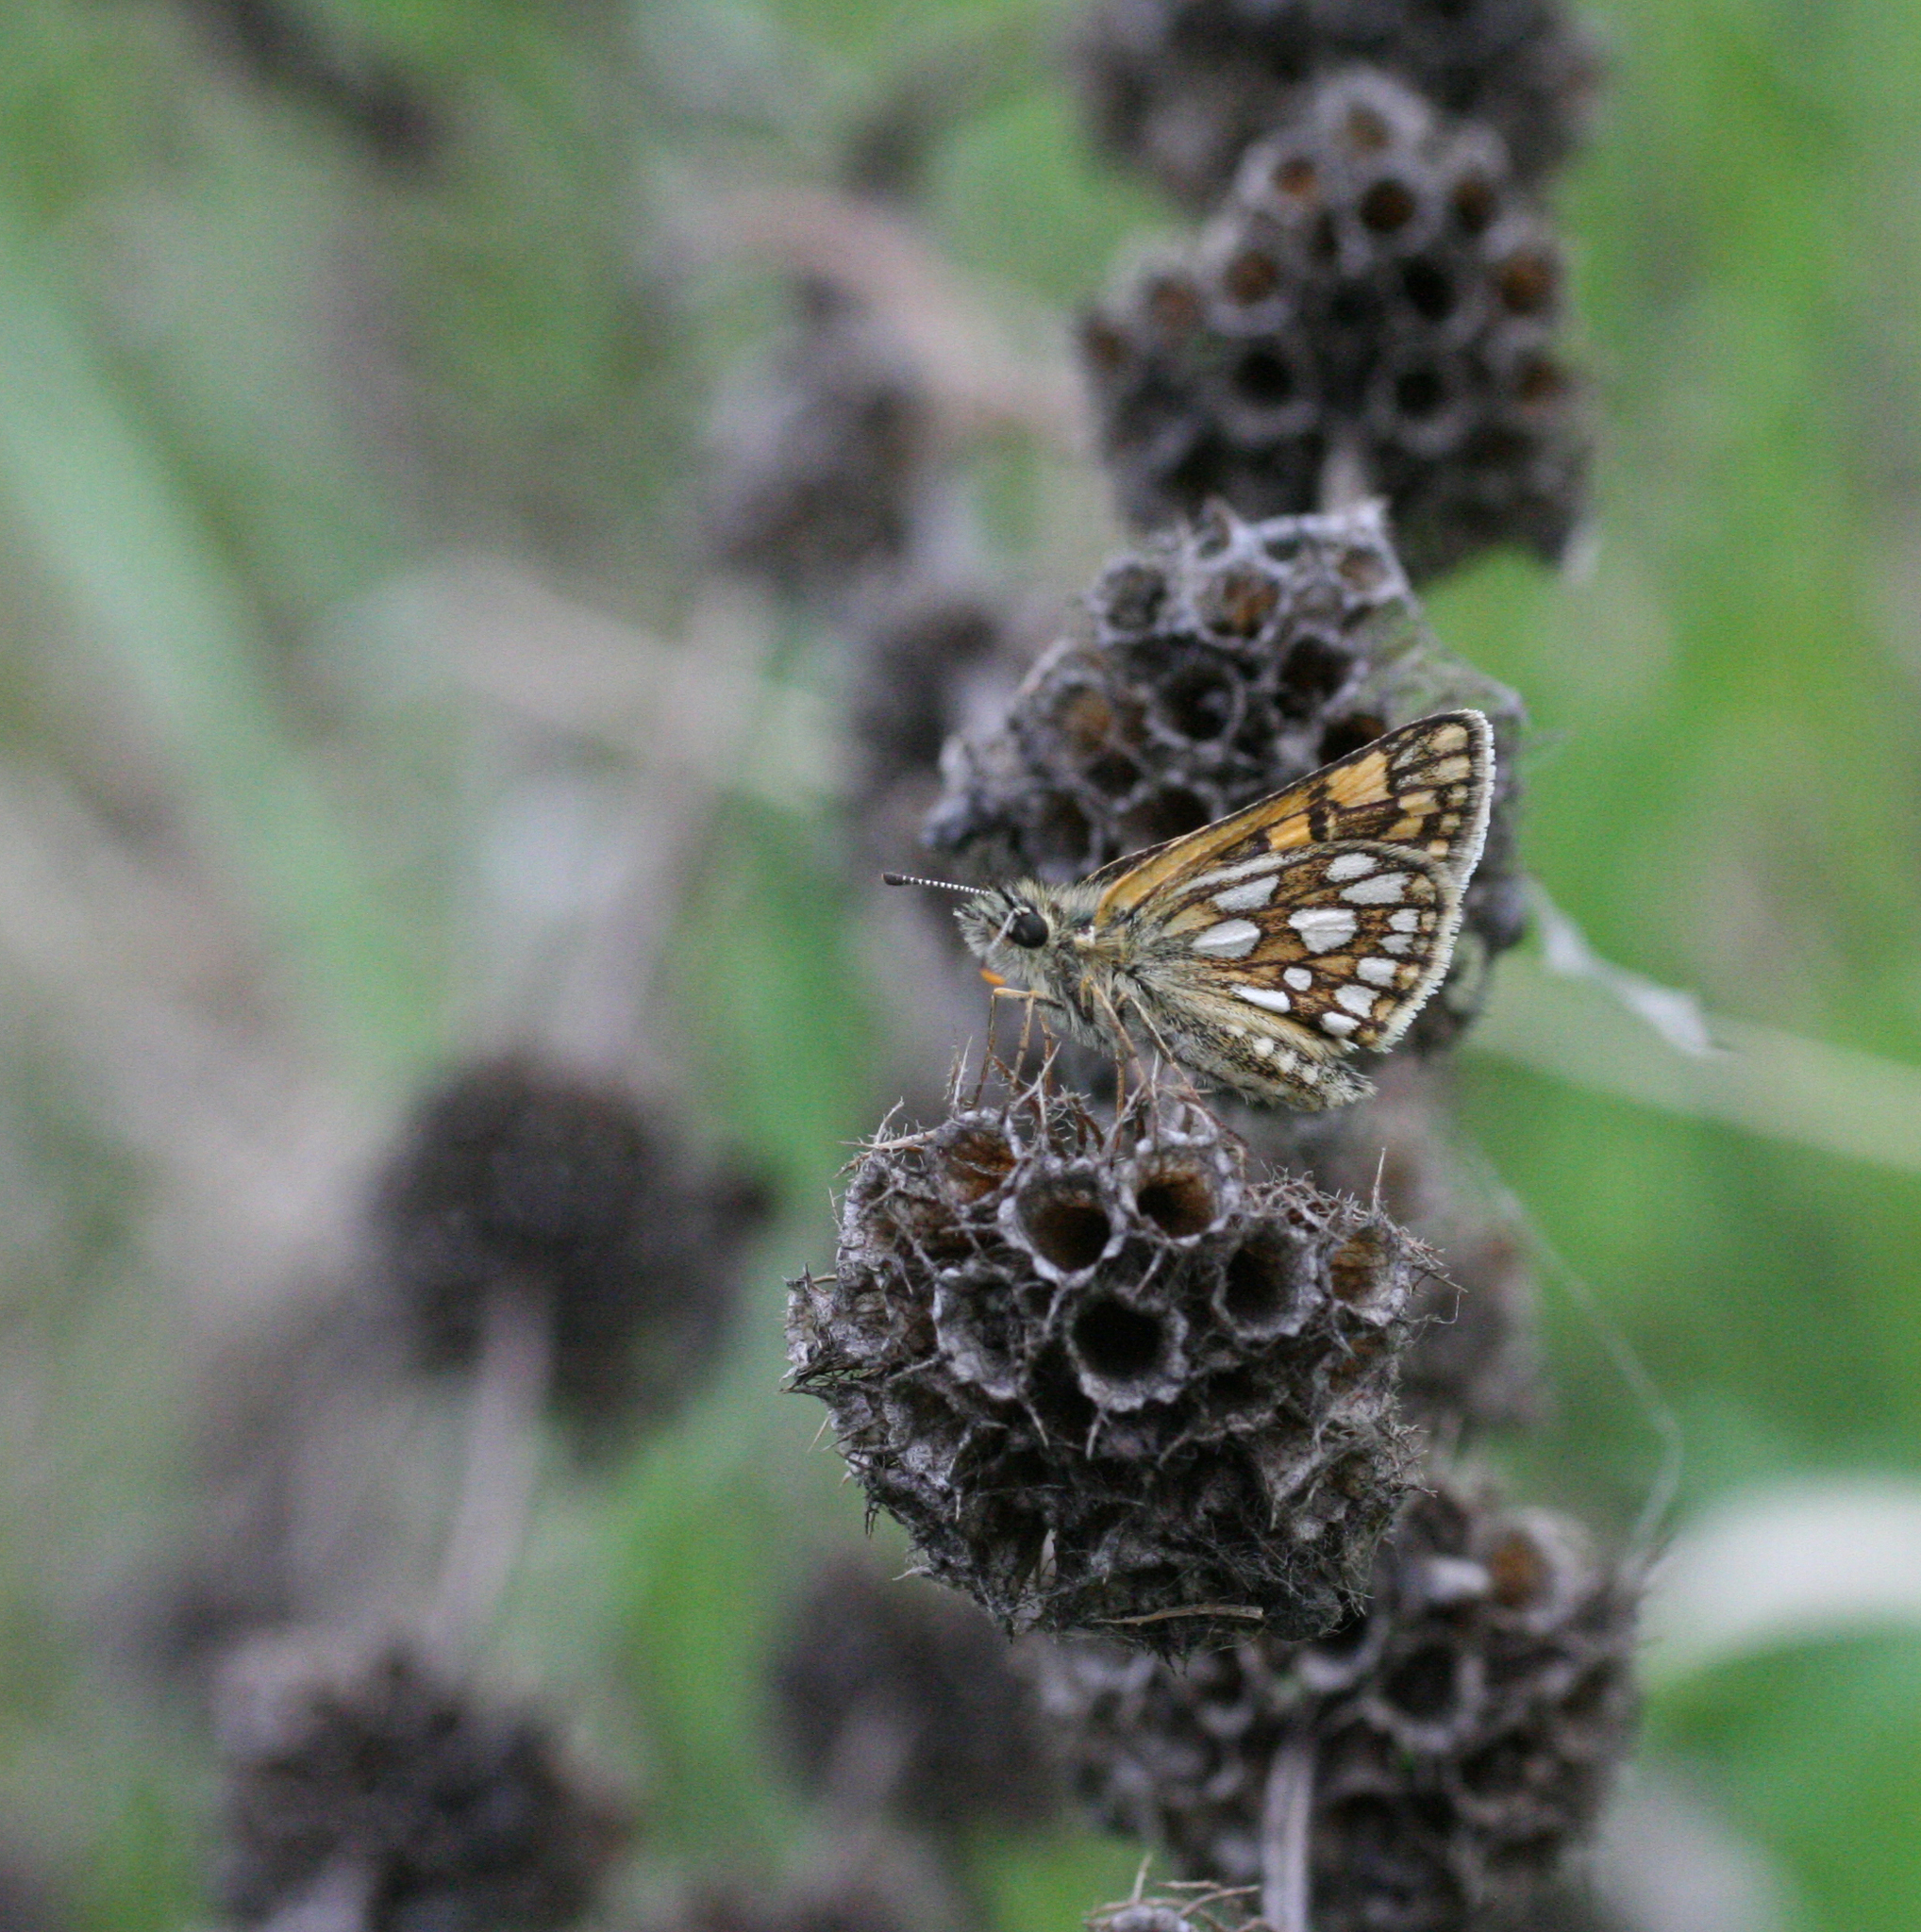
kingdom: Animalia
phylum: Arthropoda
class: Insecta
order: Lepidoptera
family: Hesperiidae
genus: Carterocephalus
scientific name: Carterocephalus palaemon
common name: Chequered skipper
